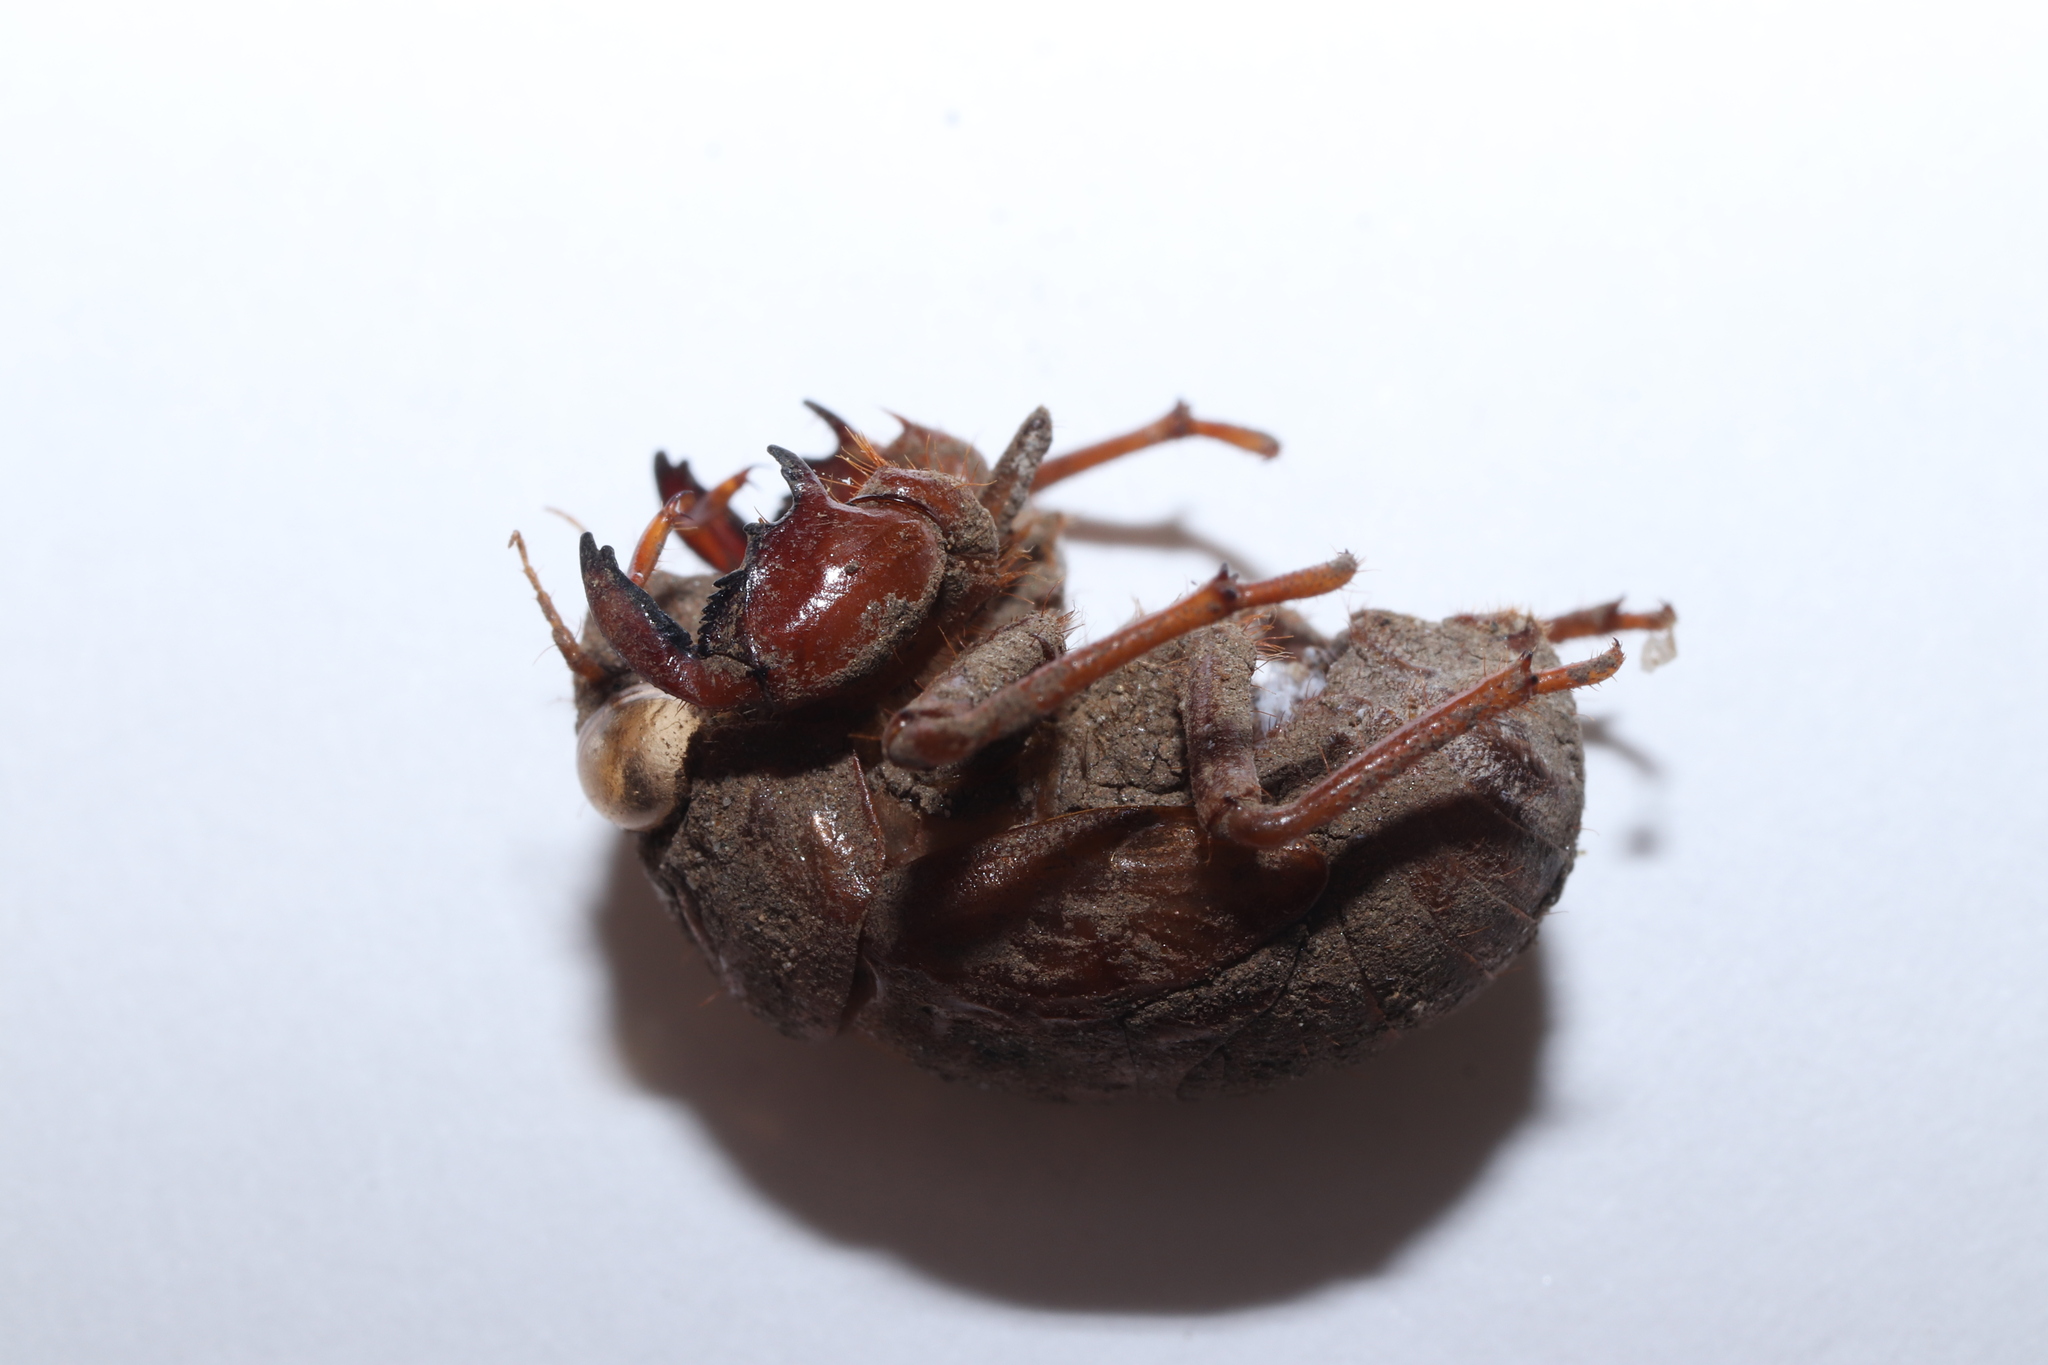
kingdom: Animalia
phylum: Arthropoda
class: Insecta
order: Hemiptera
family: Cicadidae
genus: Platypleura
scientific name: Platypleura kaempferi
